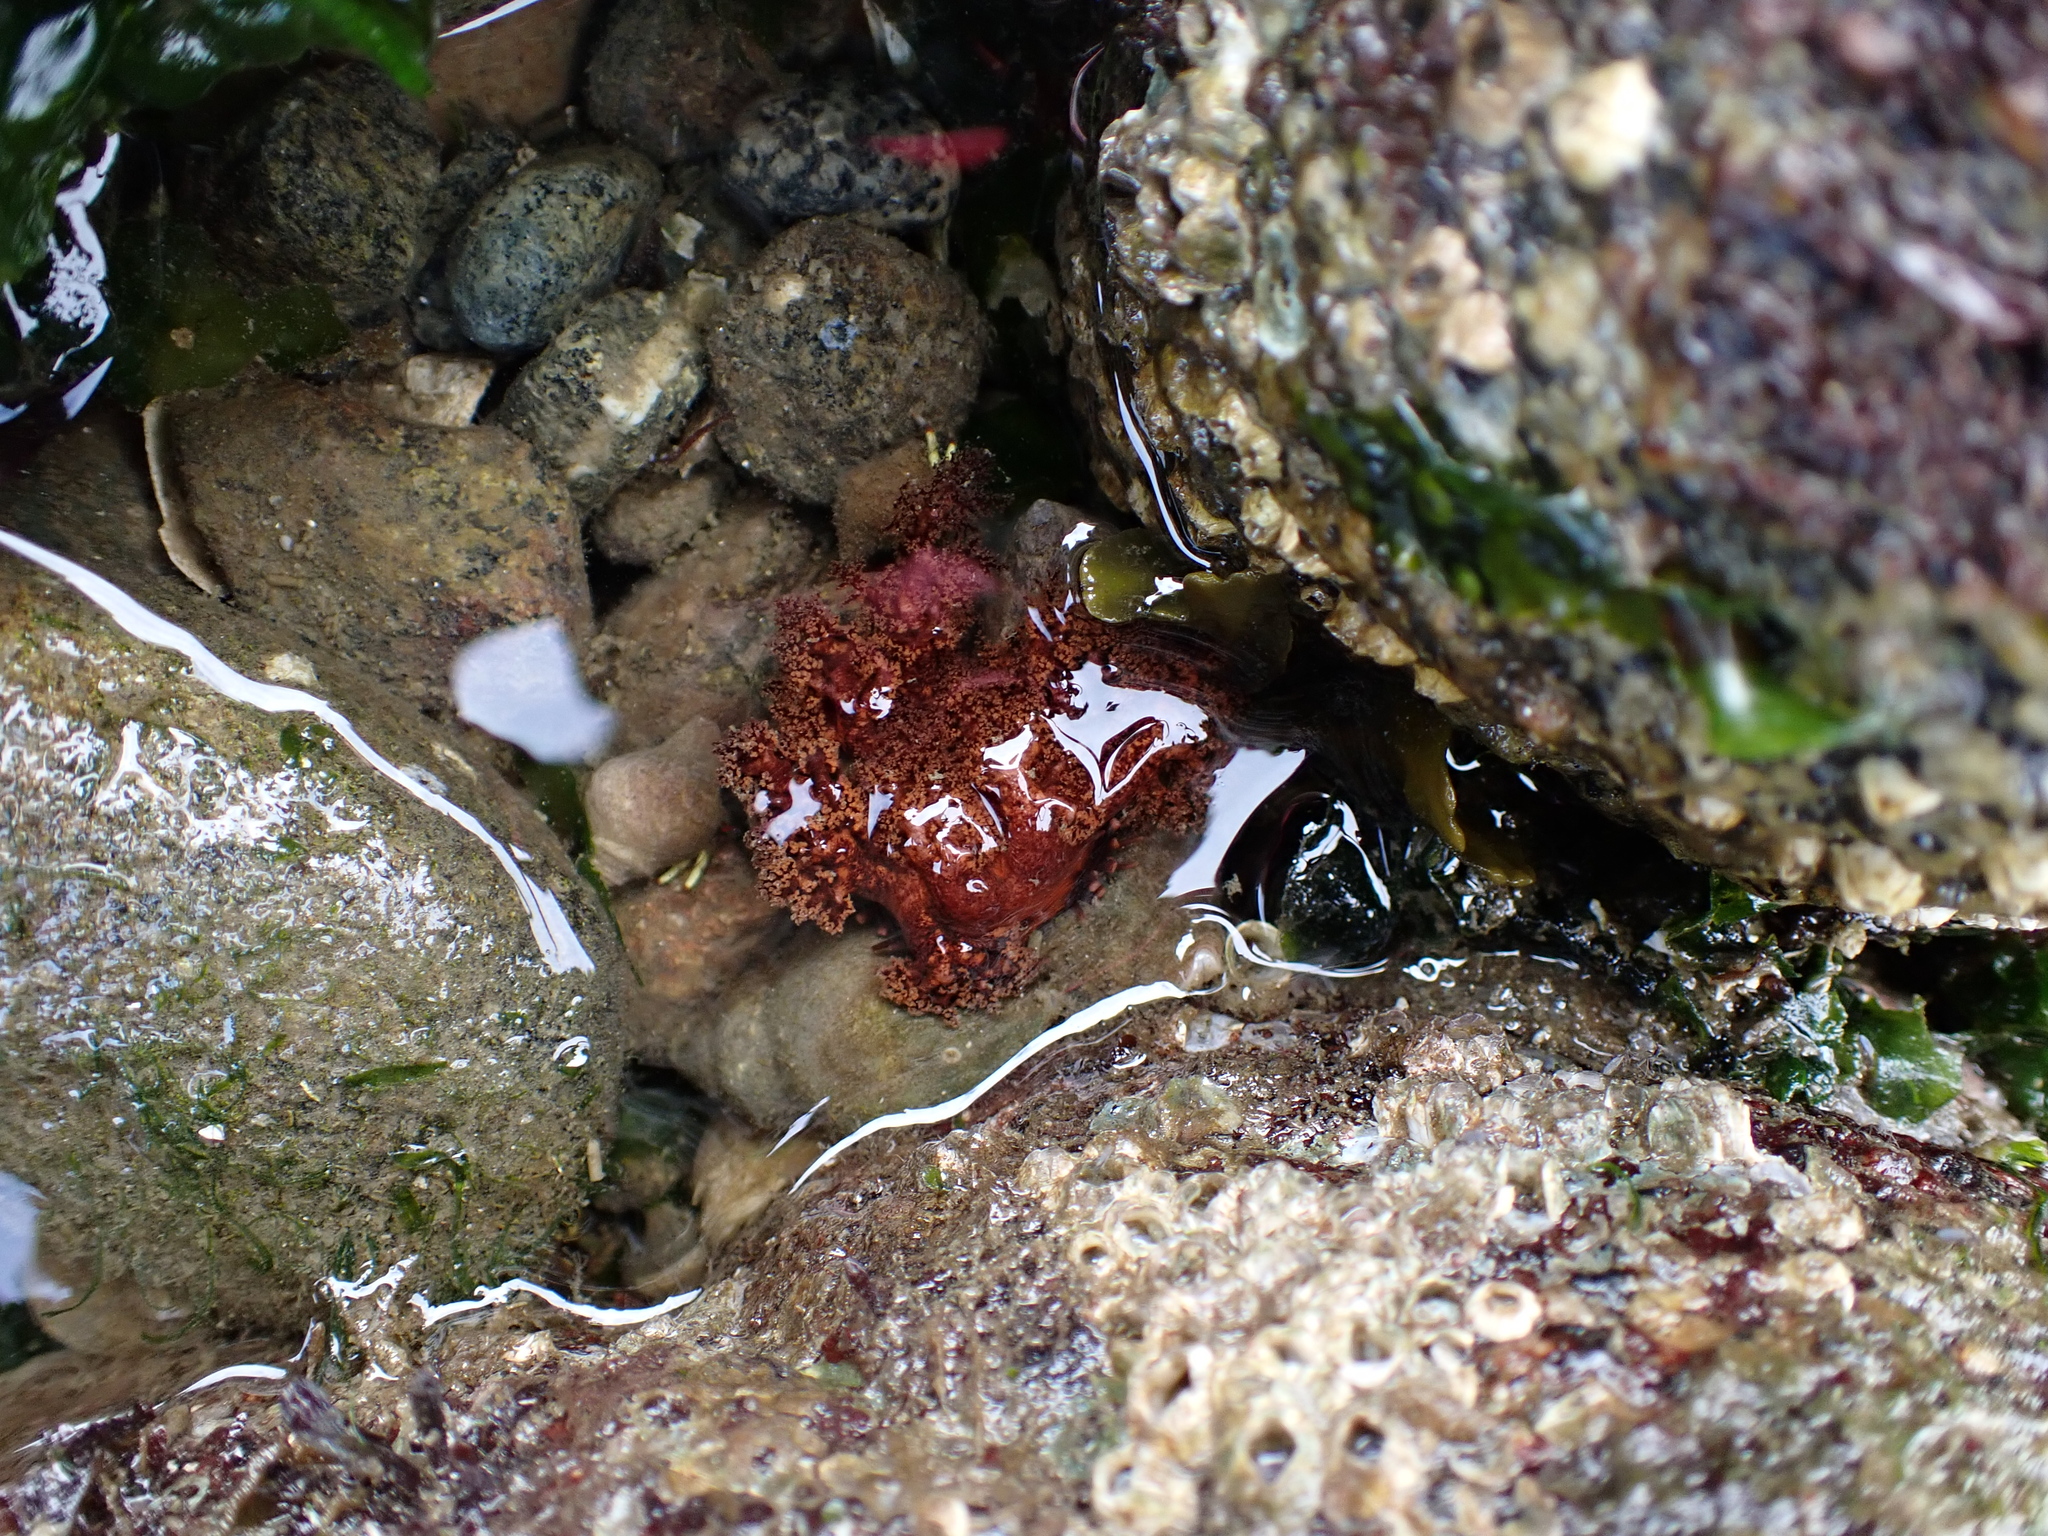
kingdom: Animalia
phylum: Echinodermata
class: Holothuroidea
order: Dendrochirotida
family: Cucumariidae
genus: Cucumaria
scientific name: Cucumaria miniata
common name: Orange sea cucumber
